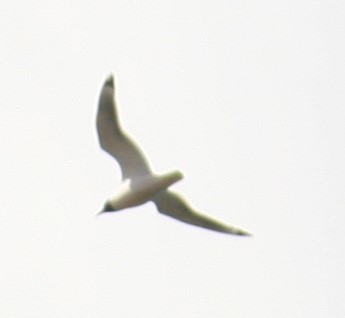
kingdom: Animalia
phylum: Chordata
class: Aves
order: Charadriiformes
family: Laridae
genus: Leucophaeus
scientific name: Leucophaeus pipixcan
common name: Franklin's gull
